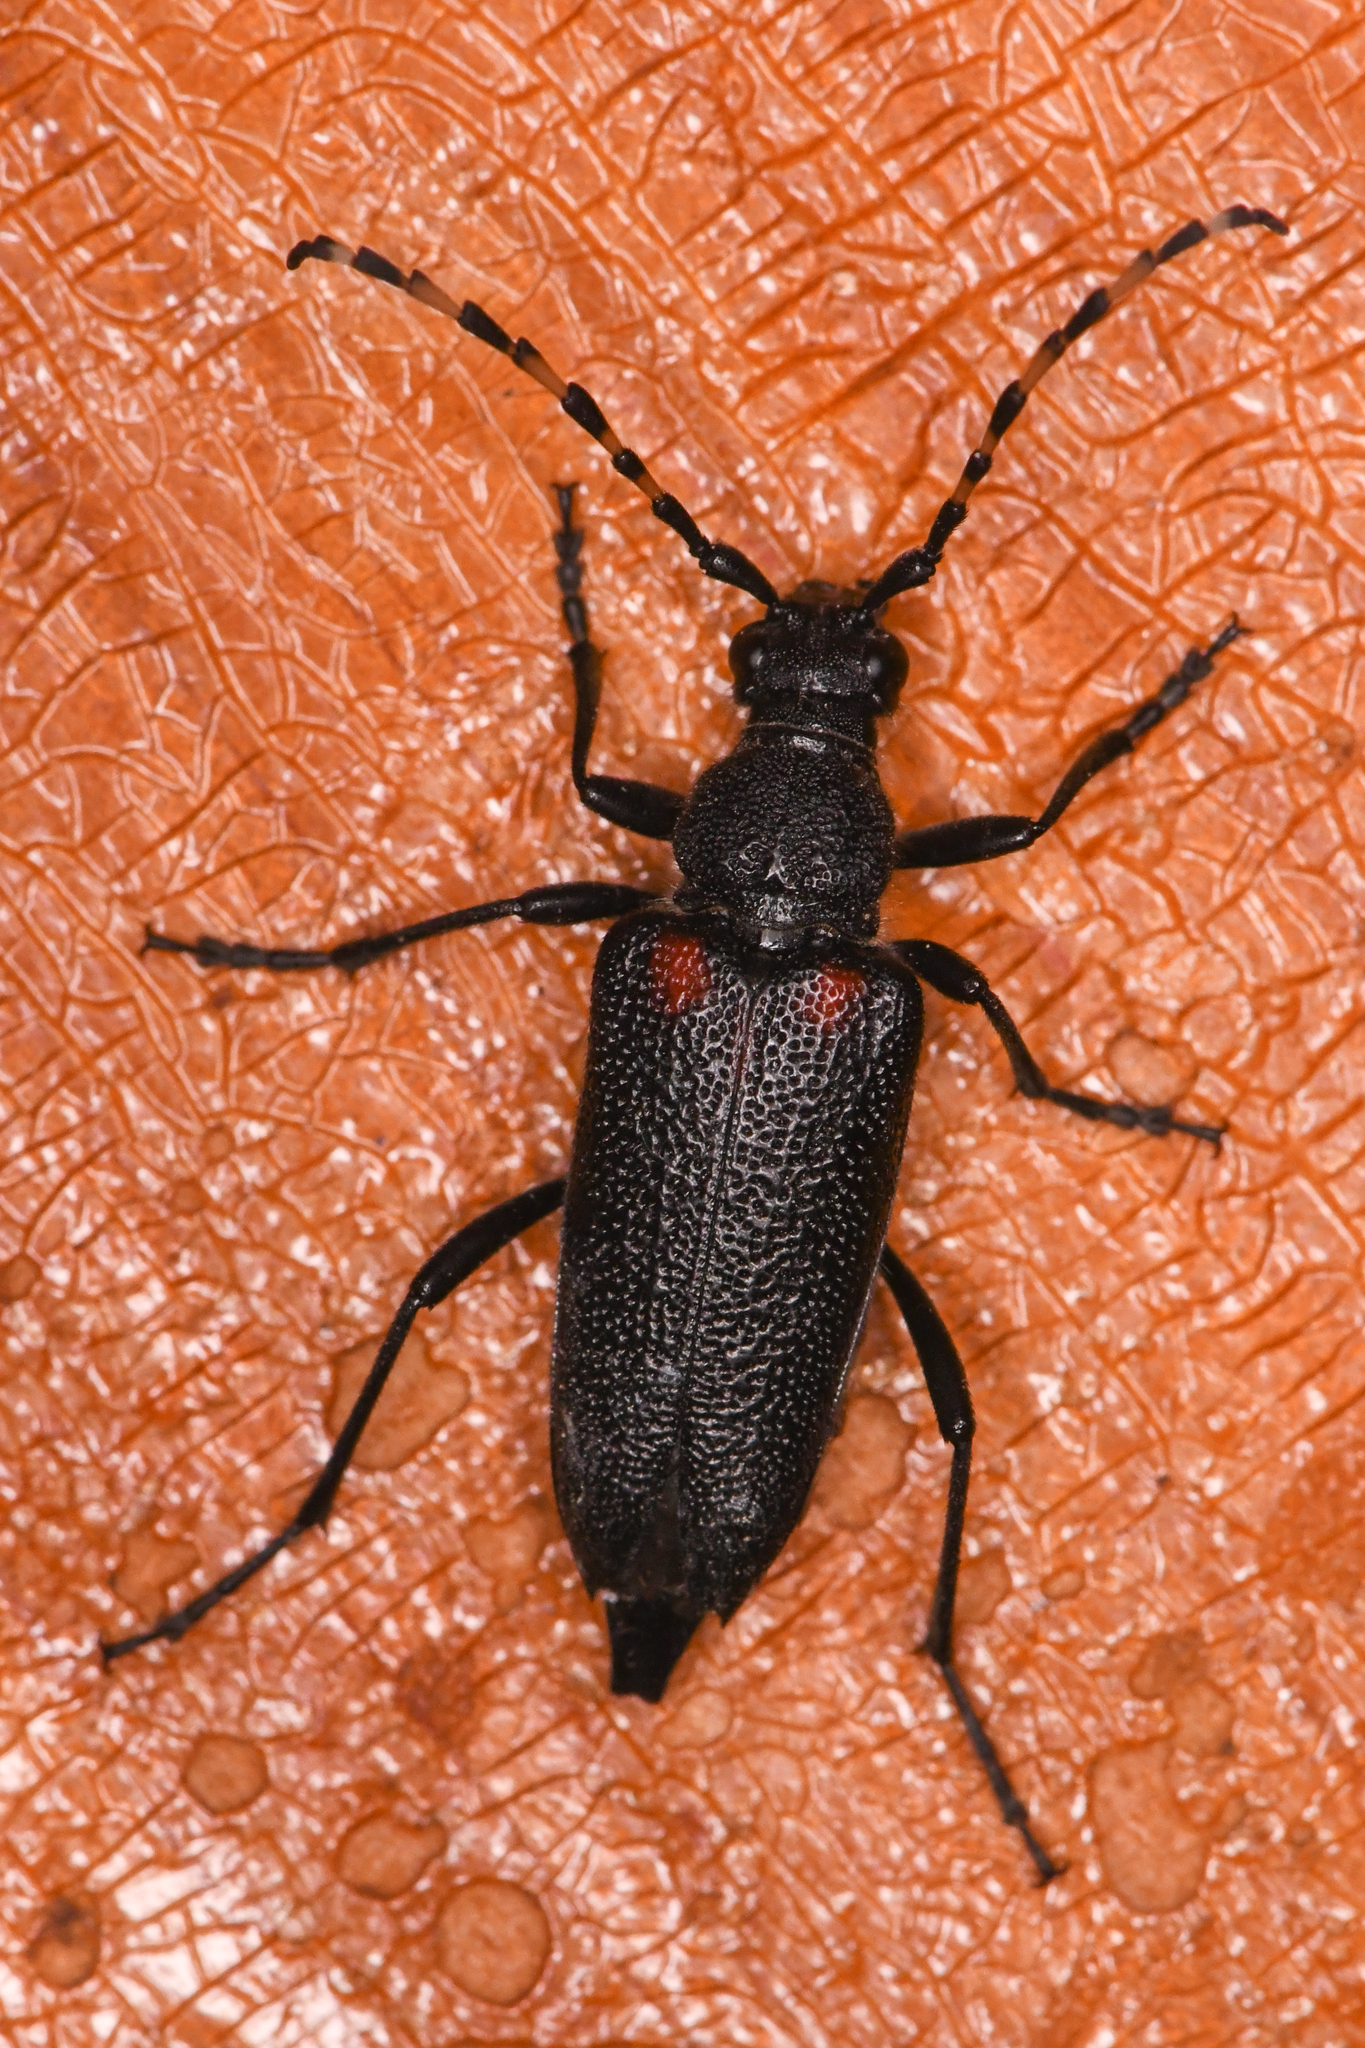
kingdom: Animalia
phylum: Arthropoda
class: Insecta
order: Coleoptera
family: Cerambycidae
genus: Stictoleptura
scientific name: Stictoleptura canadensis
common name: Red-shouldered pine borer
